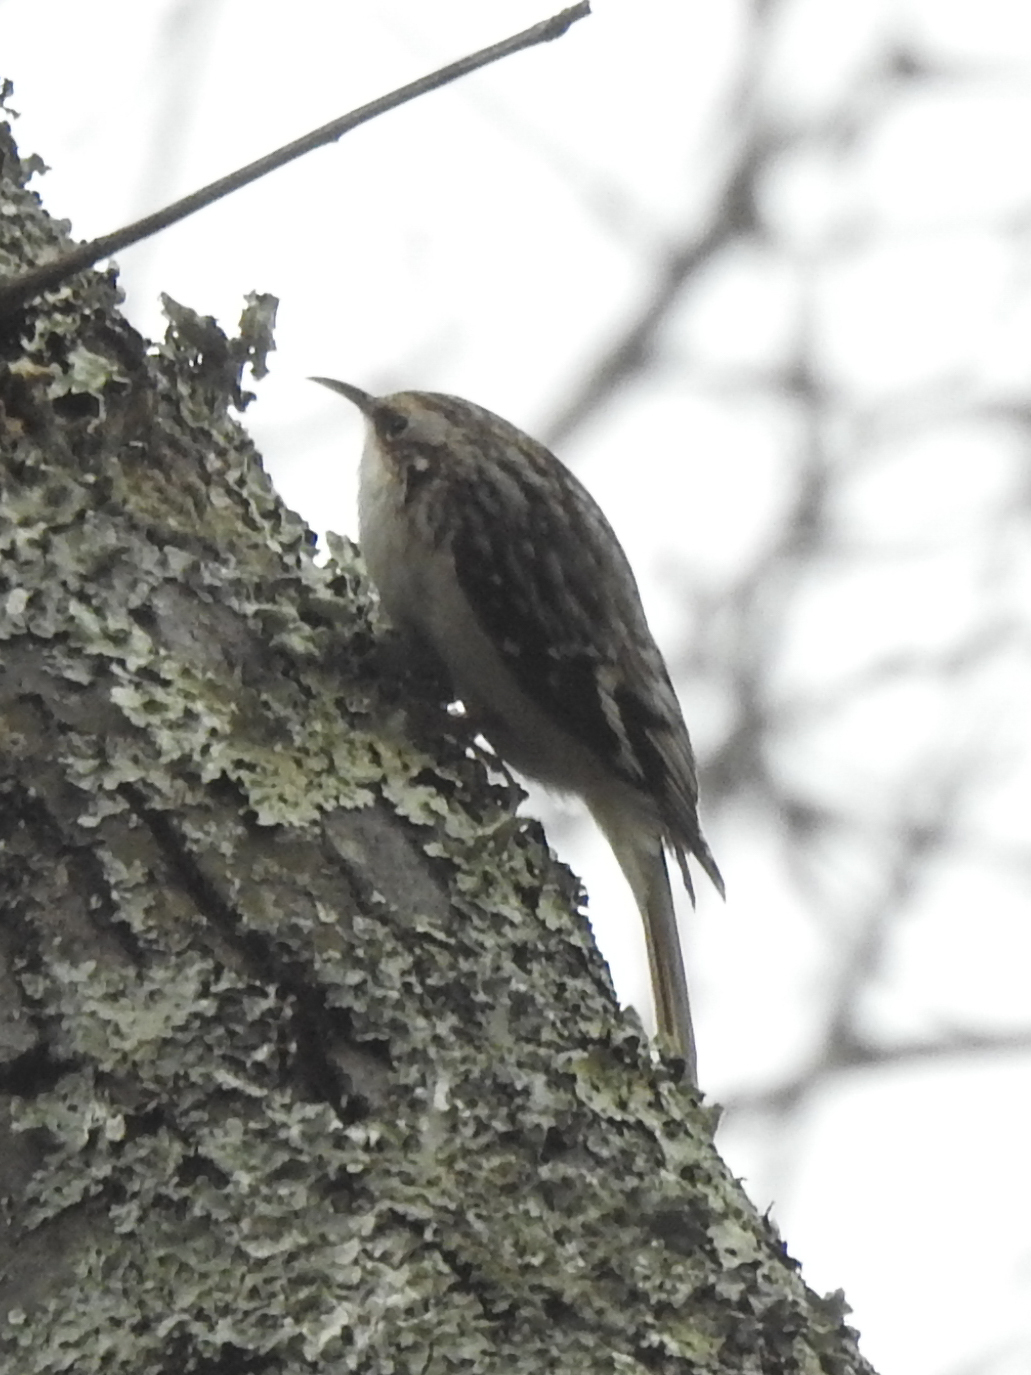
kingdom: Animalia
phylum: Chordata
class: Aves
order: Passeriformes
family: Certhiidae
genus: Certhia
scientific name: Certhia americana
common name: Brown creeper
